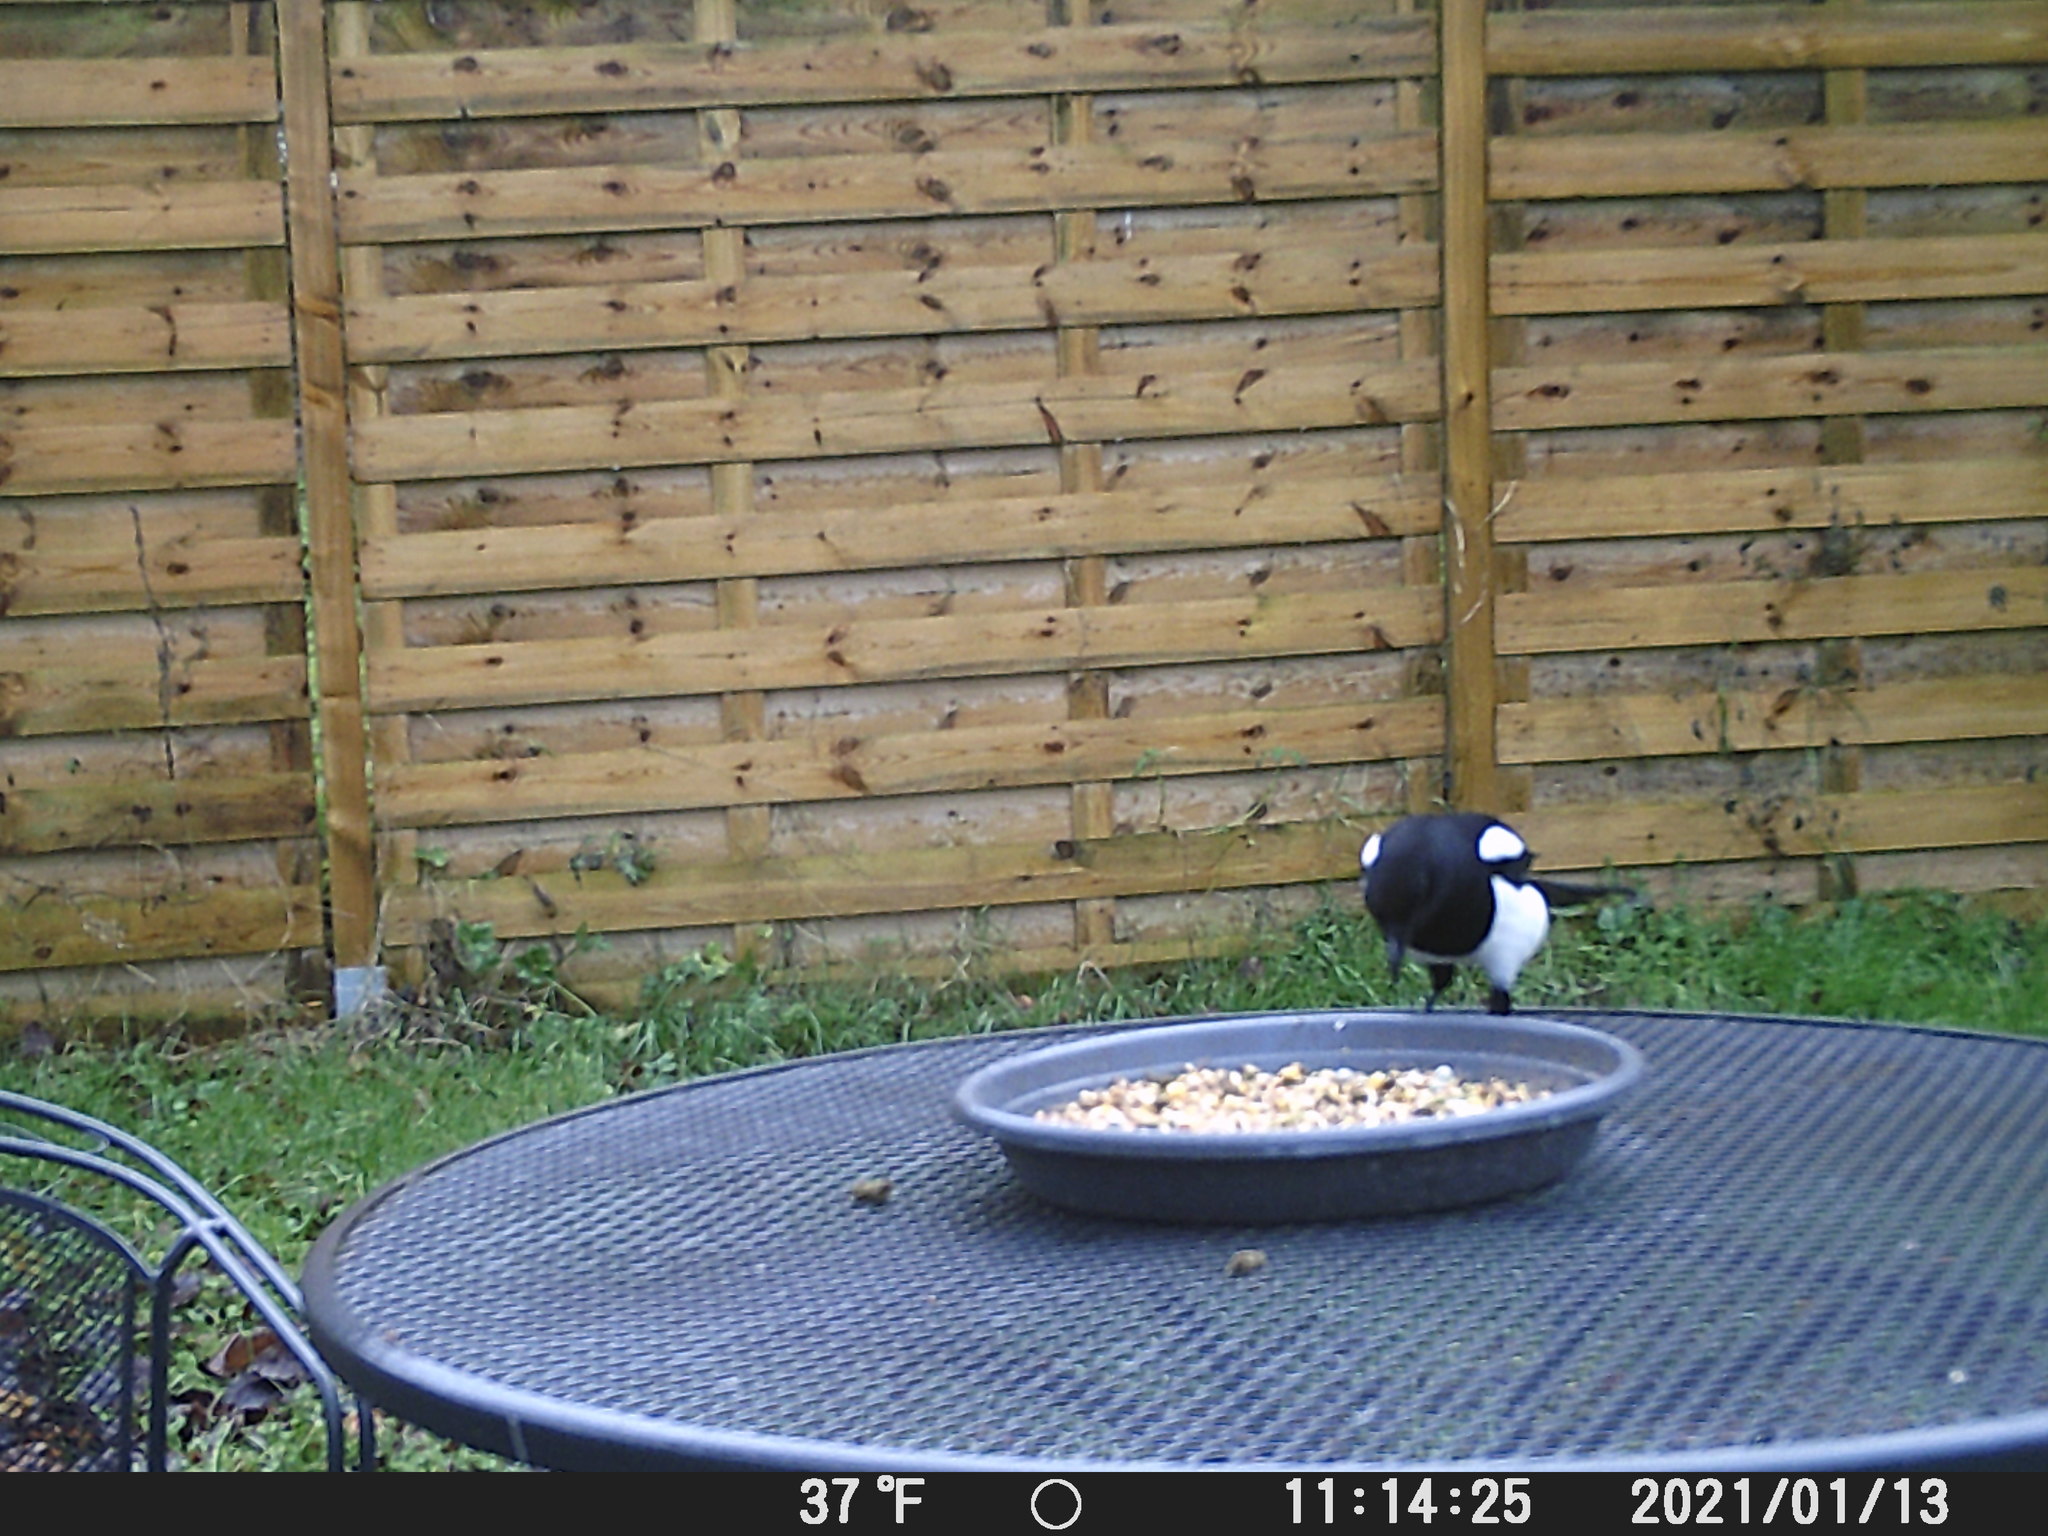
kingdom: Animalia
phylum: Chordata
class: Aves
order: Passeriformes
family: Corvidae
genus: Pica
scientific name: Pica pica
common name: Eurasian magpie
